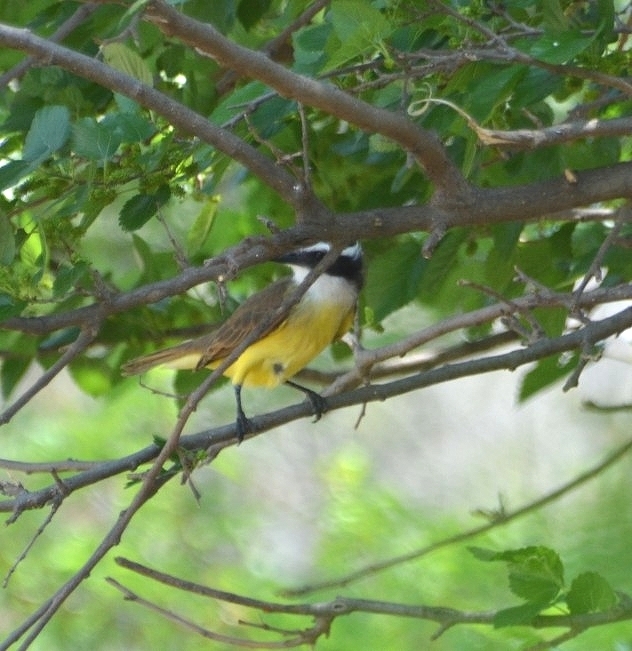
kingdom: Animalia
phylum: Chordata
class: Aves
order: Passeriformes
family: Tyrannidae
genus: Pitangus
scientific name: Pitangus sulphuratus
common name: Great kiskadee
